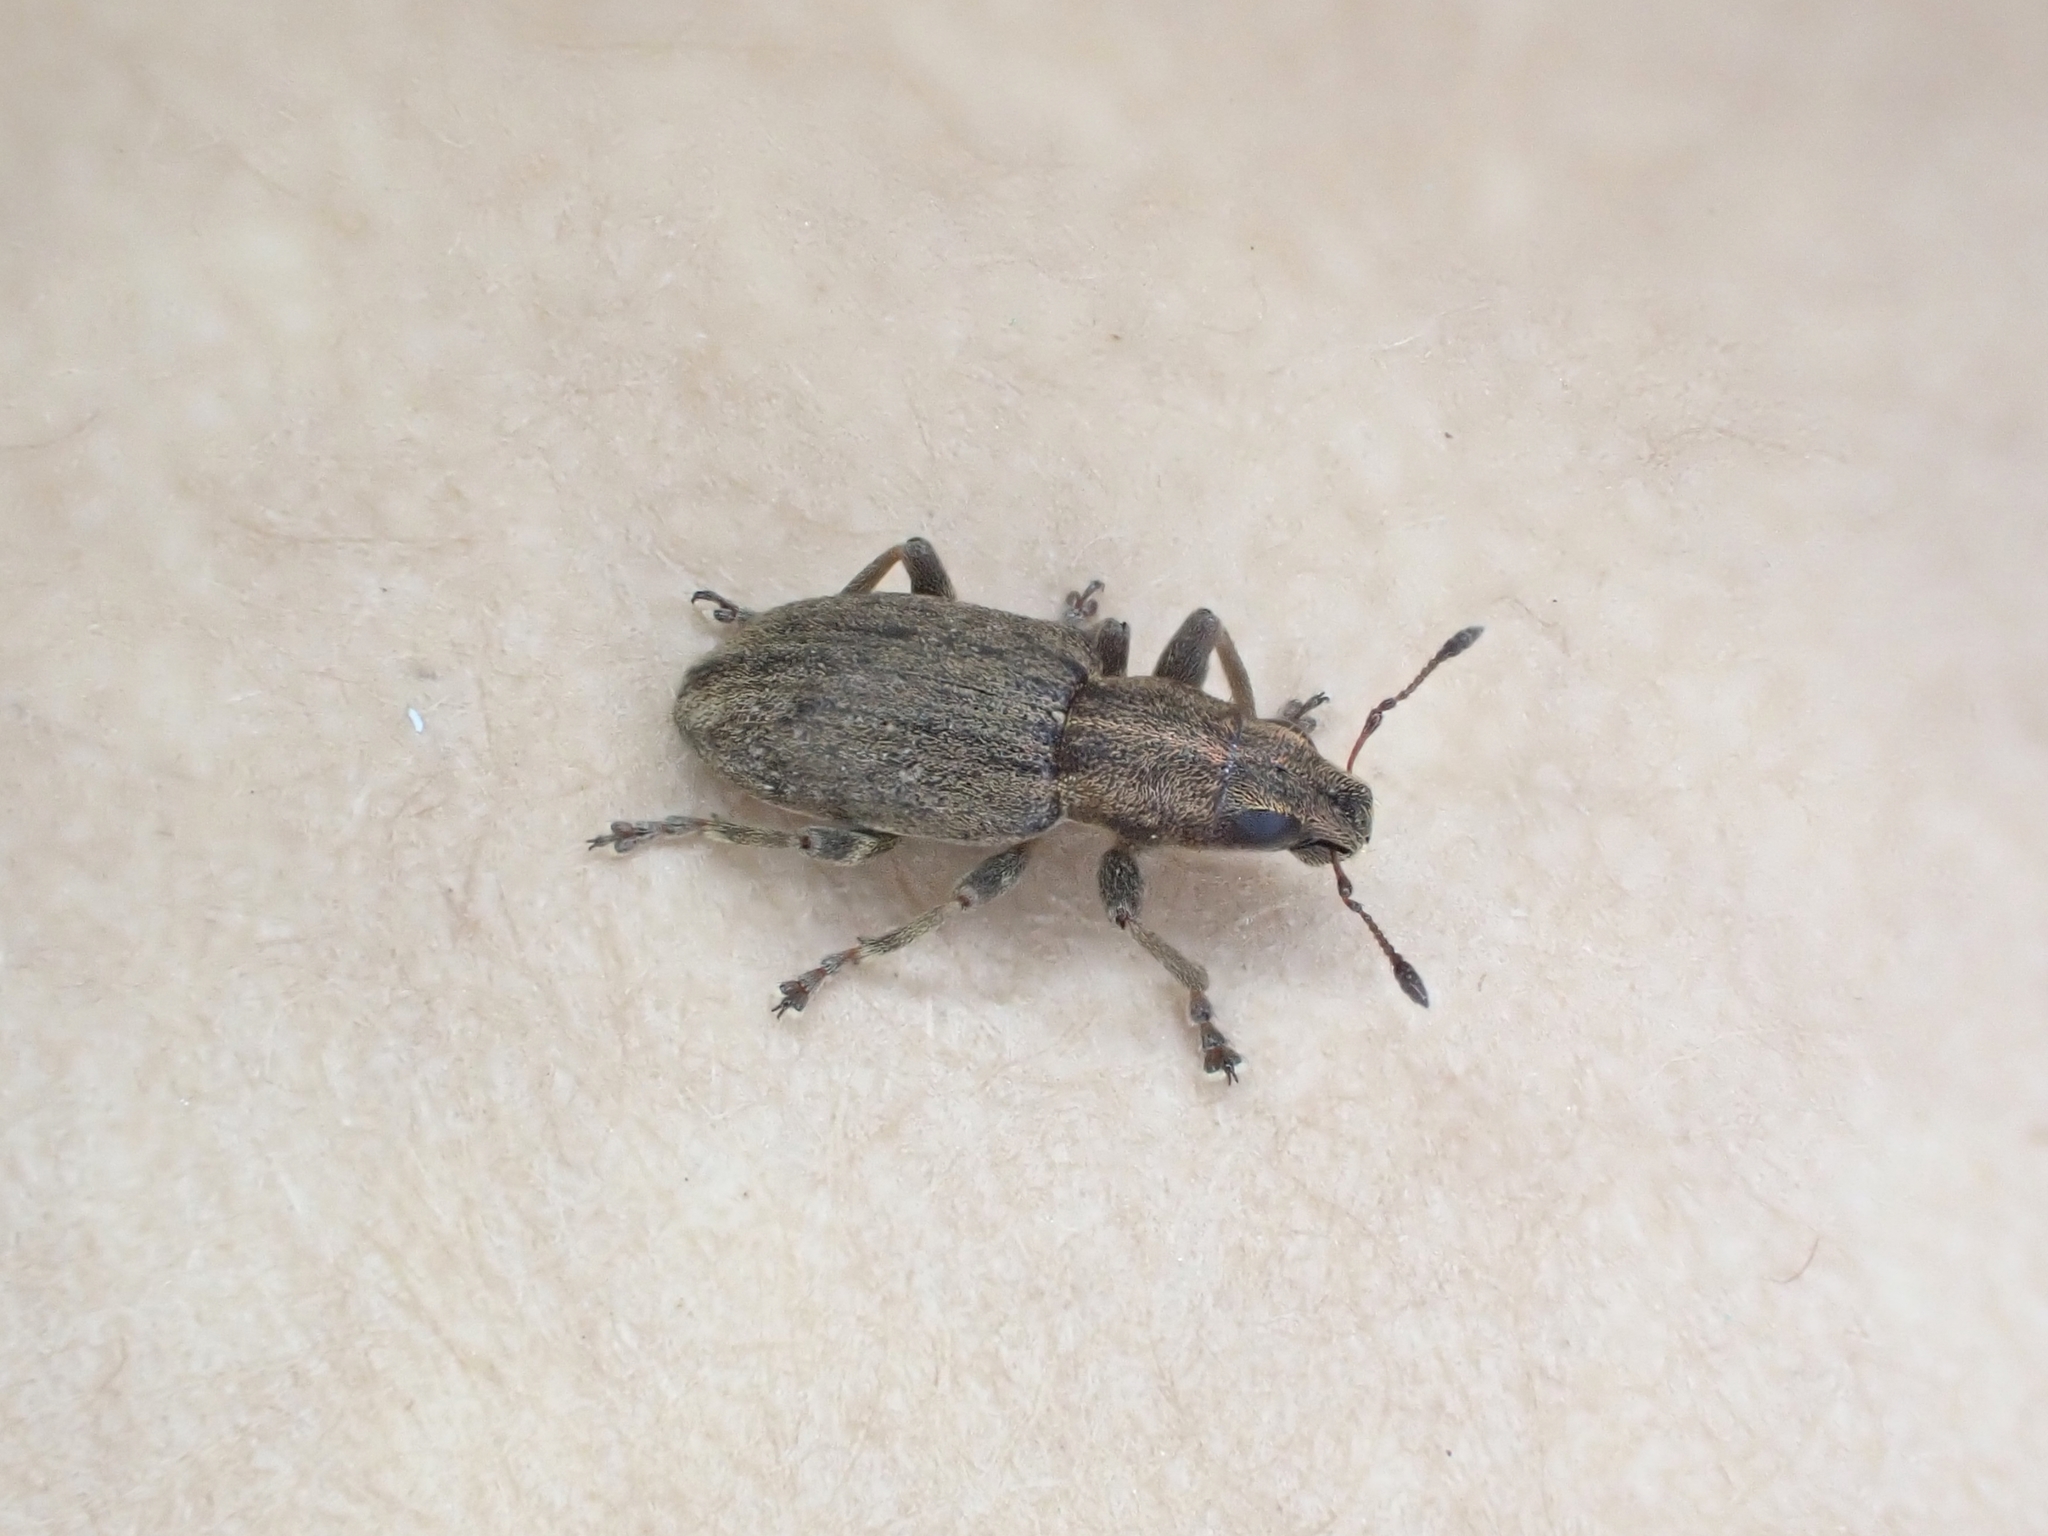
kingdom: Animalia
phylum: Arthropoda
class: Insecta
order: Coleoptera
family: Curculionidae
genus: Sitona
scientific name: Sitona obsoletus
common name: Weevil
